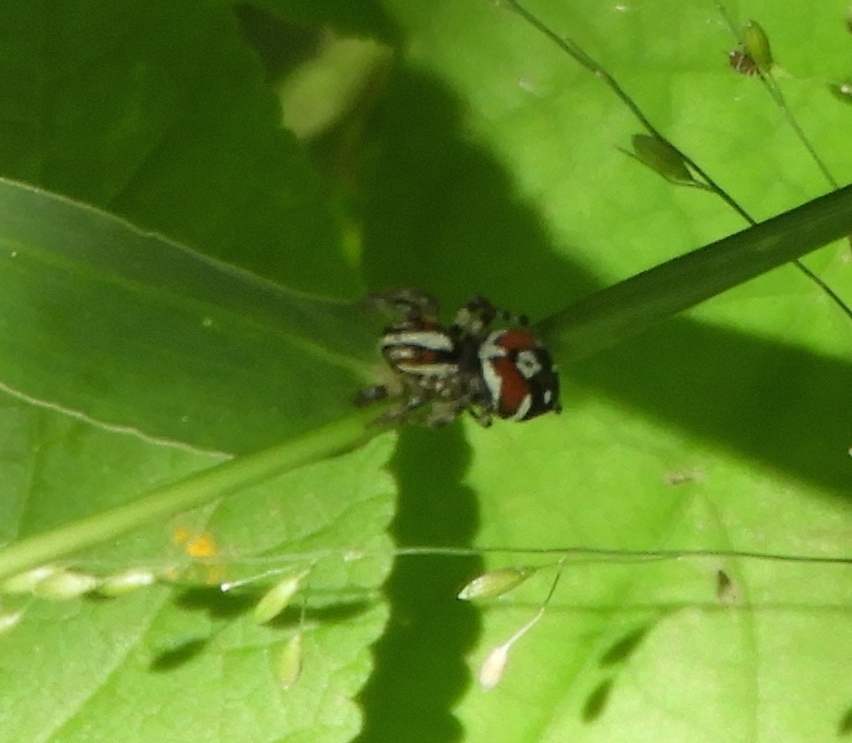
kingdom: Animalia
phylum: Arthropoda
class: Arachnida
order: Araneae
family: Salticidae
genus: Nycerella
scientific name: Nycerella delecta
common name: Jumping spiders
